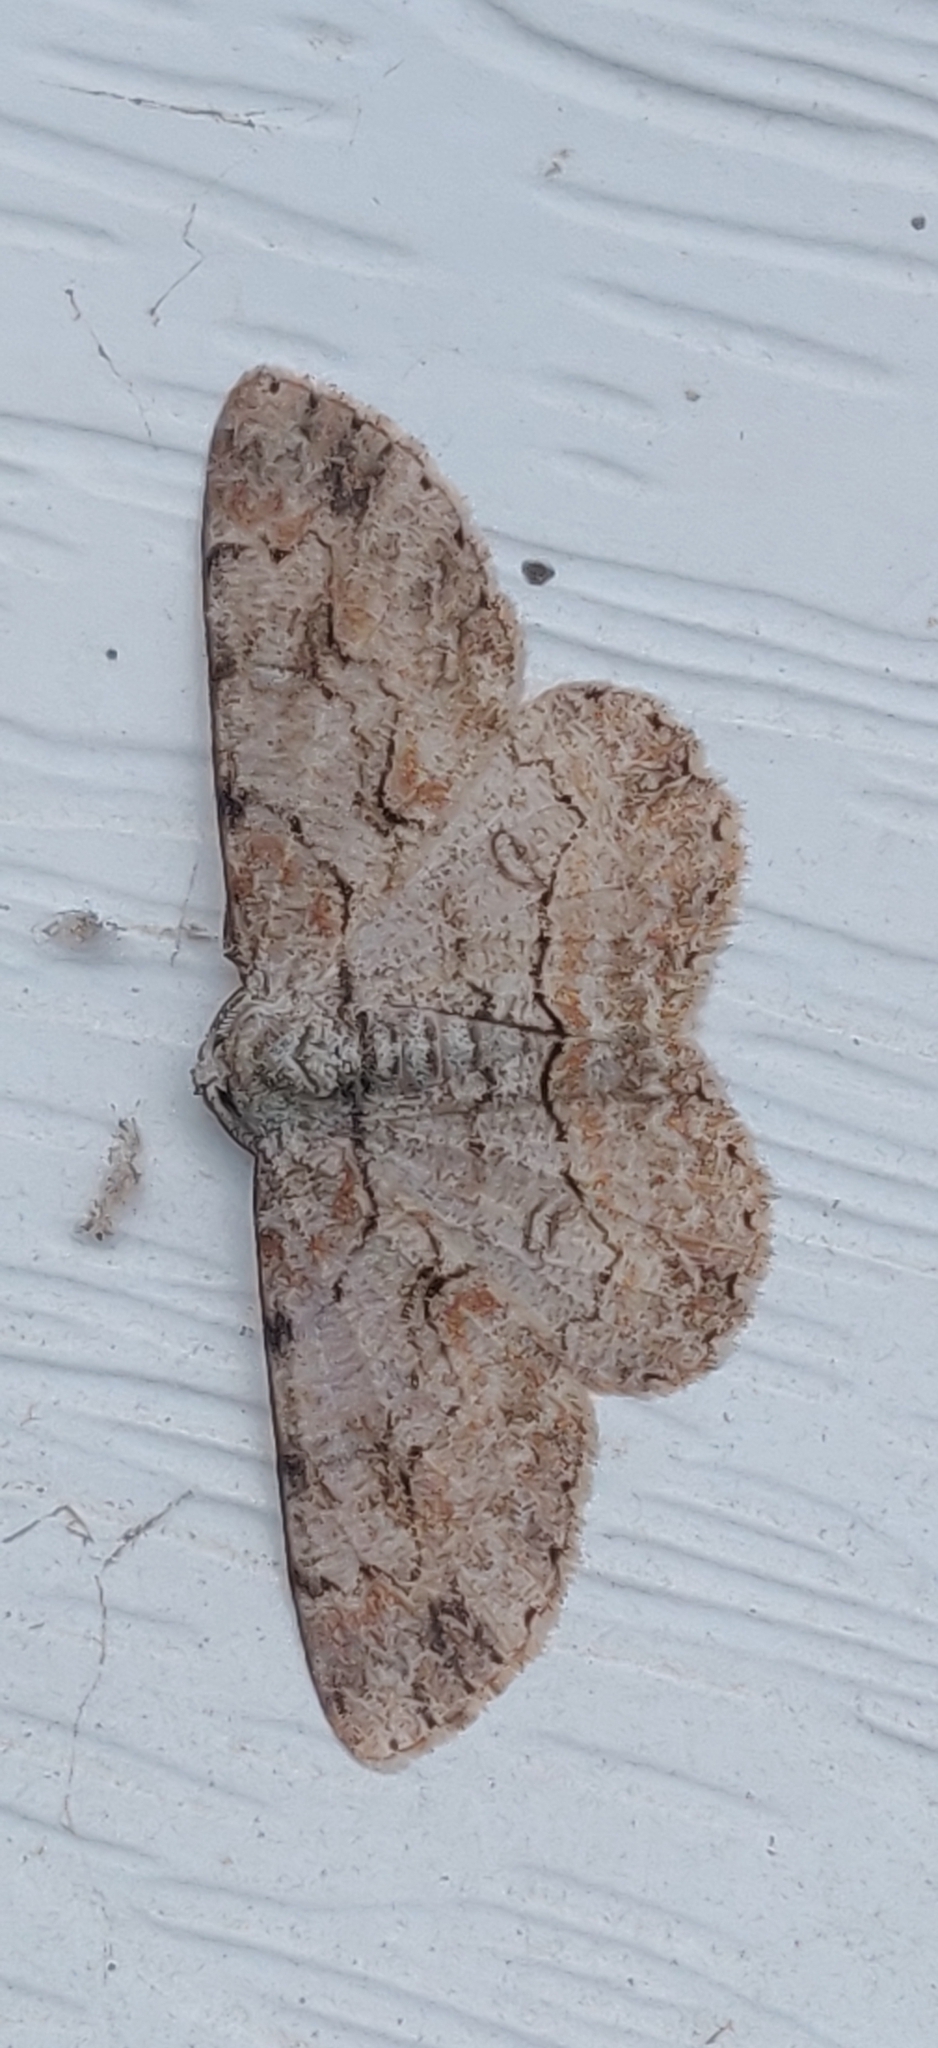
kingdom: Animalia
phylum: Arthropoda
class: Insecta
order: Lepidoptera
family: Geometridae
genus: Iridopsis
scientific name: Iridopsis defectaria
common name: Brown-shaded gray
